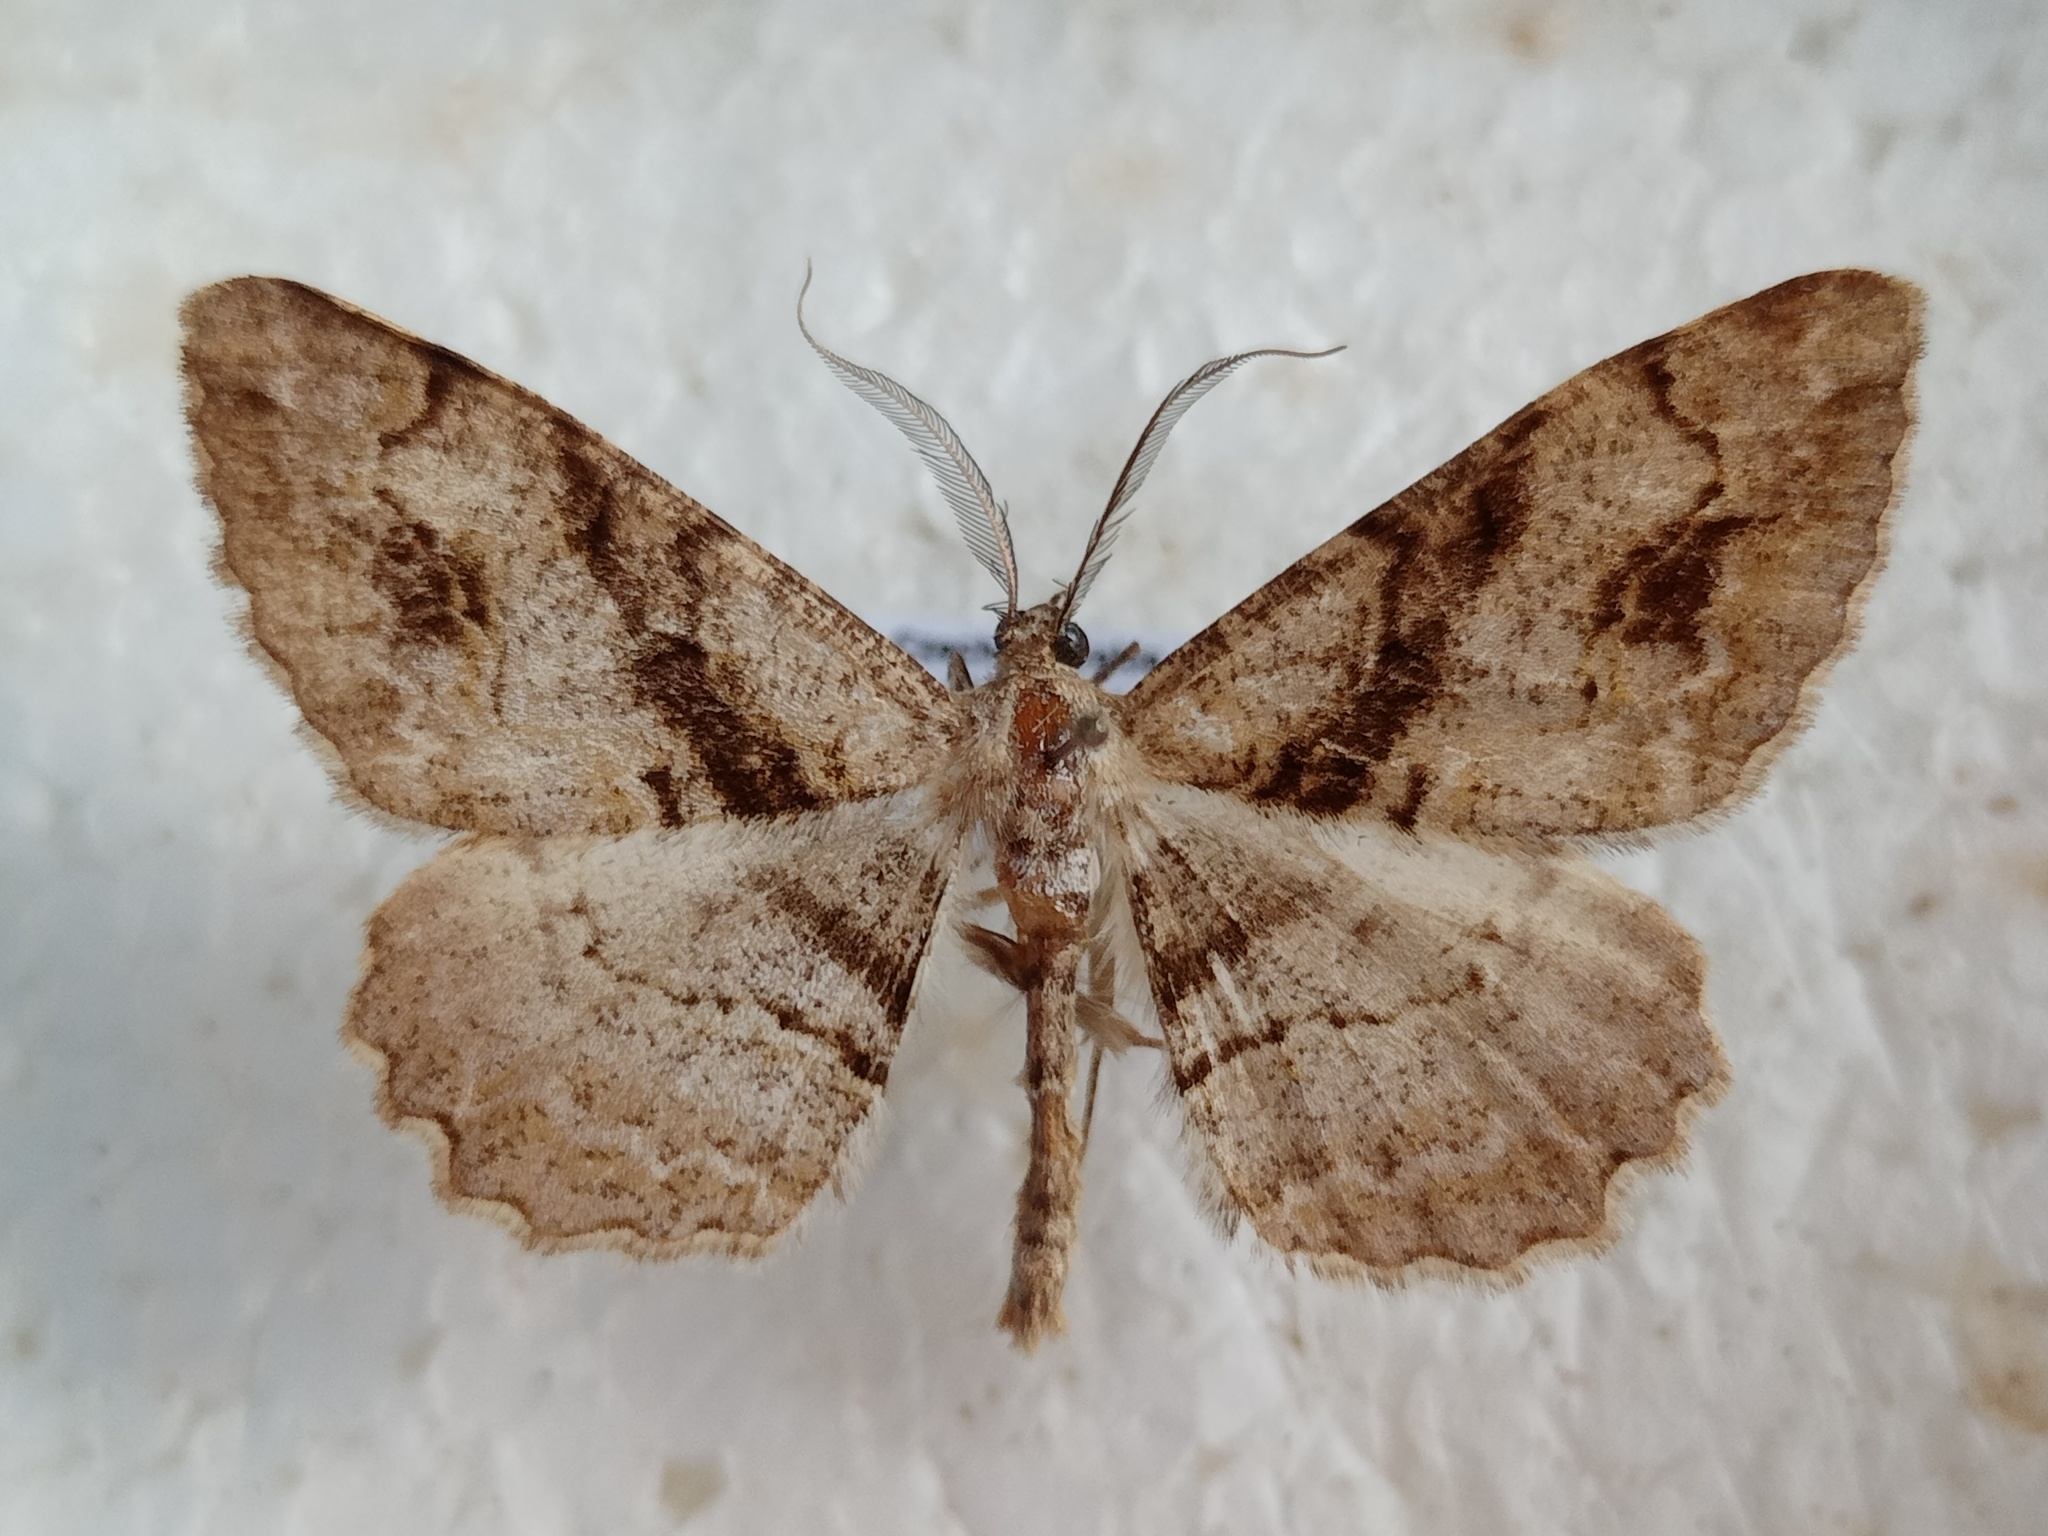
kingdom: Animalia
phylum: Arthropoda
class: Insecta
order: Lepidoptera
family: Geometridae
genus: Alcis
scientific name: Alcis deversata
